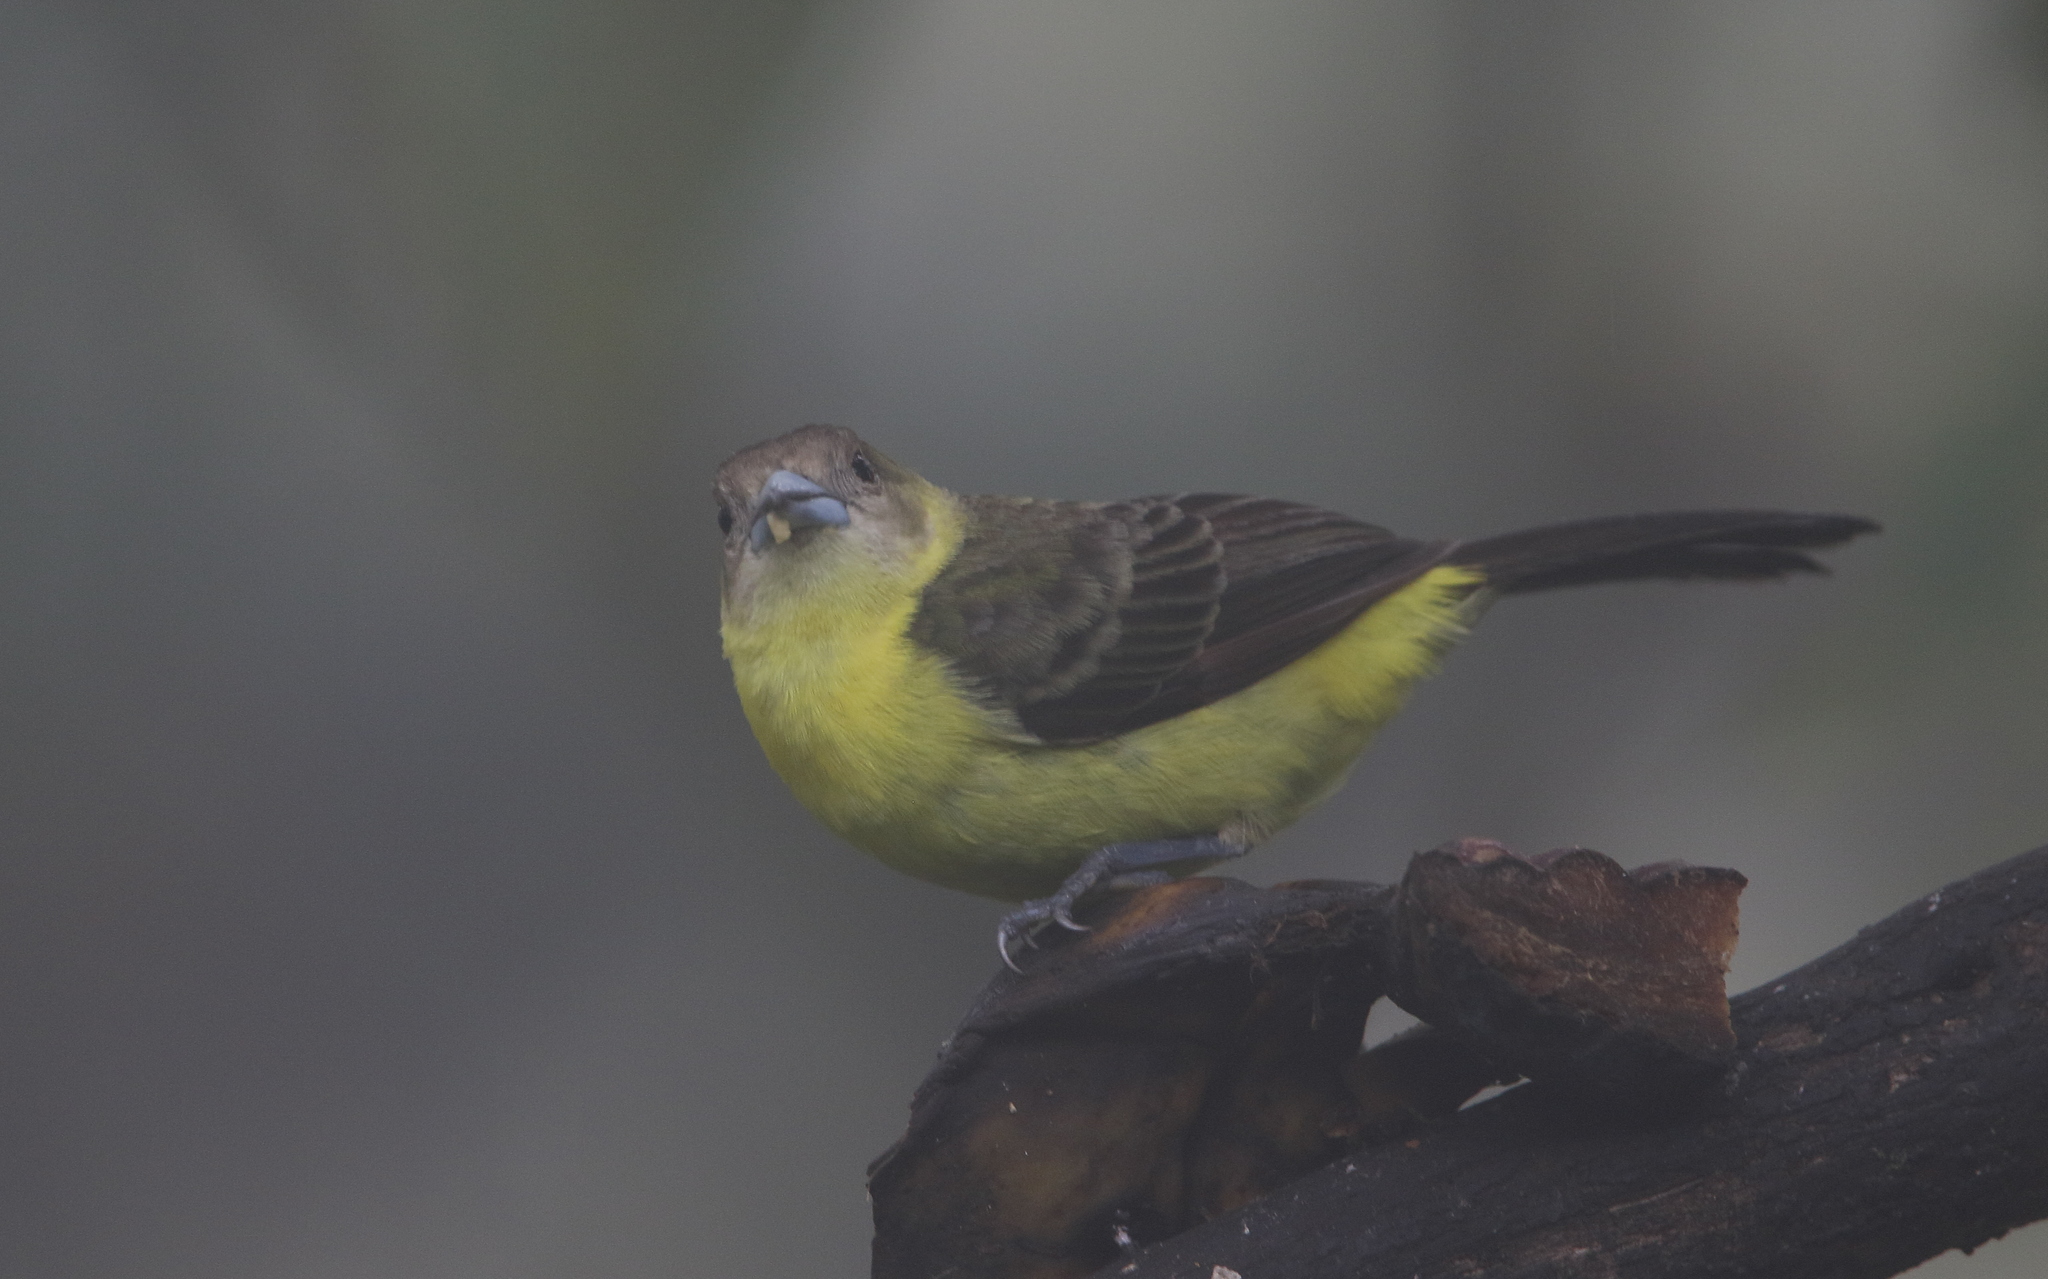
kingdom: Animalia
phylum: Chordata
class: Aves
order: Passeriformes
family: Thraupidae
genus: Ramphocelus
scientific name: Ramphocelus flammigerus
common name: Flame-rumped tanager
